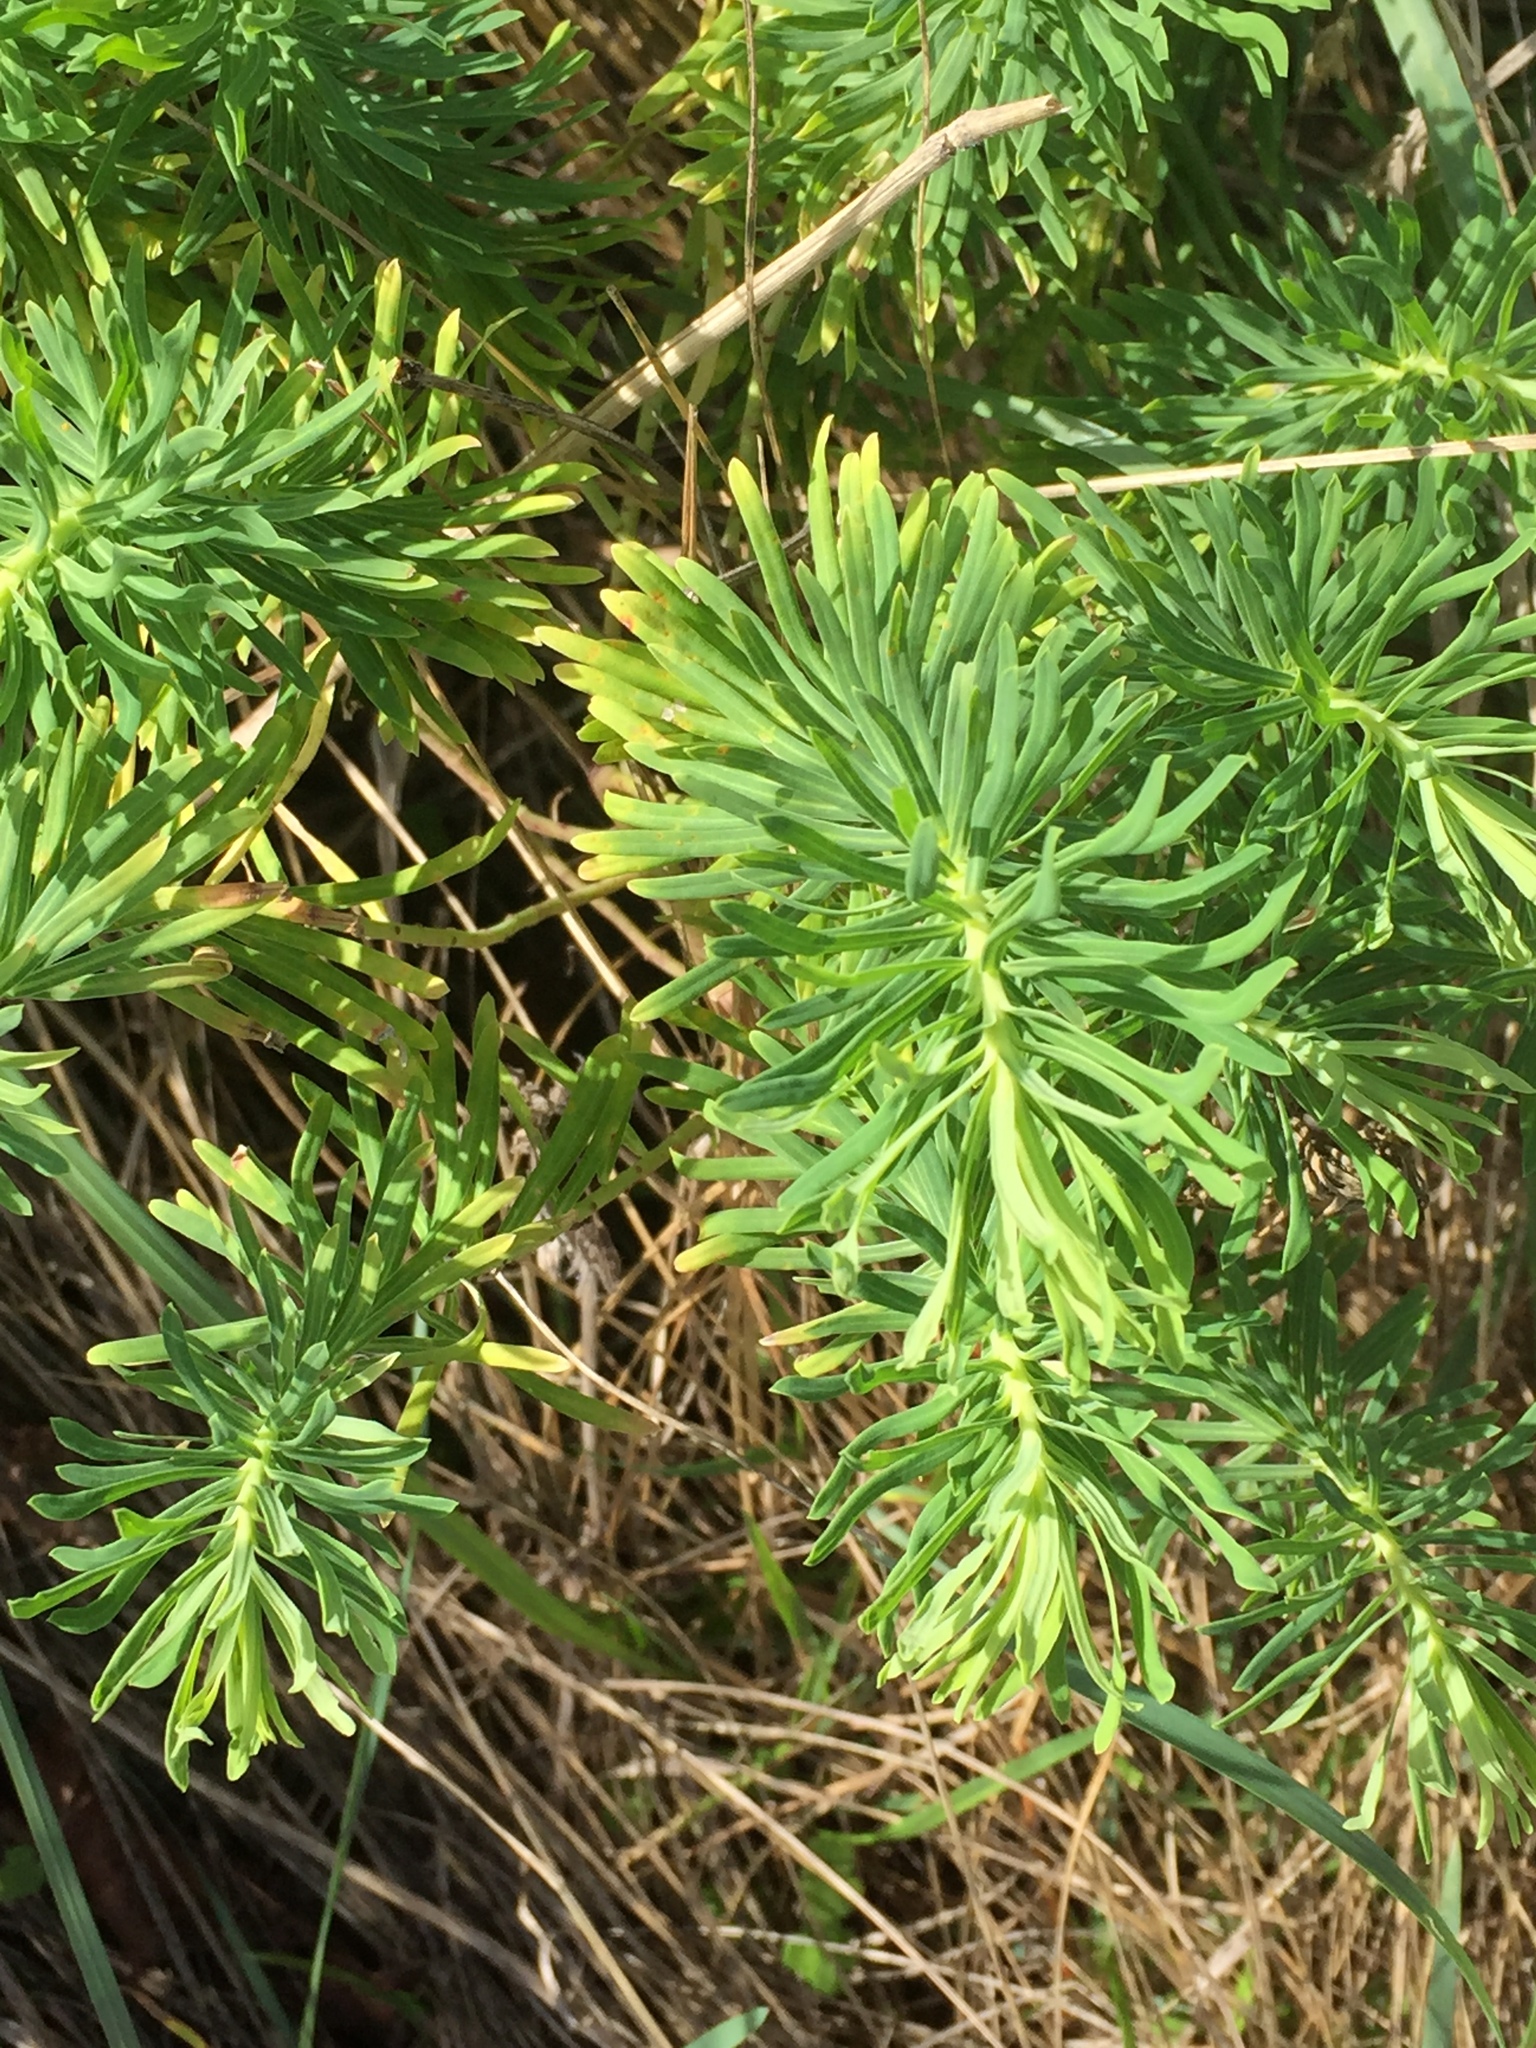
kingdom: Plantae
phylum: Tracheophyta
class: Magnoliopsida
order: Malpighiales
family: Euphorbiaceae
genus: Euphorbia
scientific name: Euphorbia cyparissias
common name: Cypress spurge
